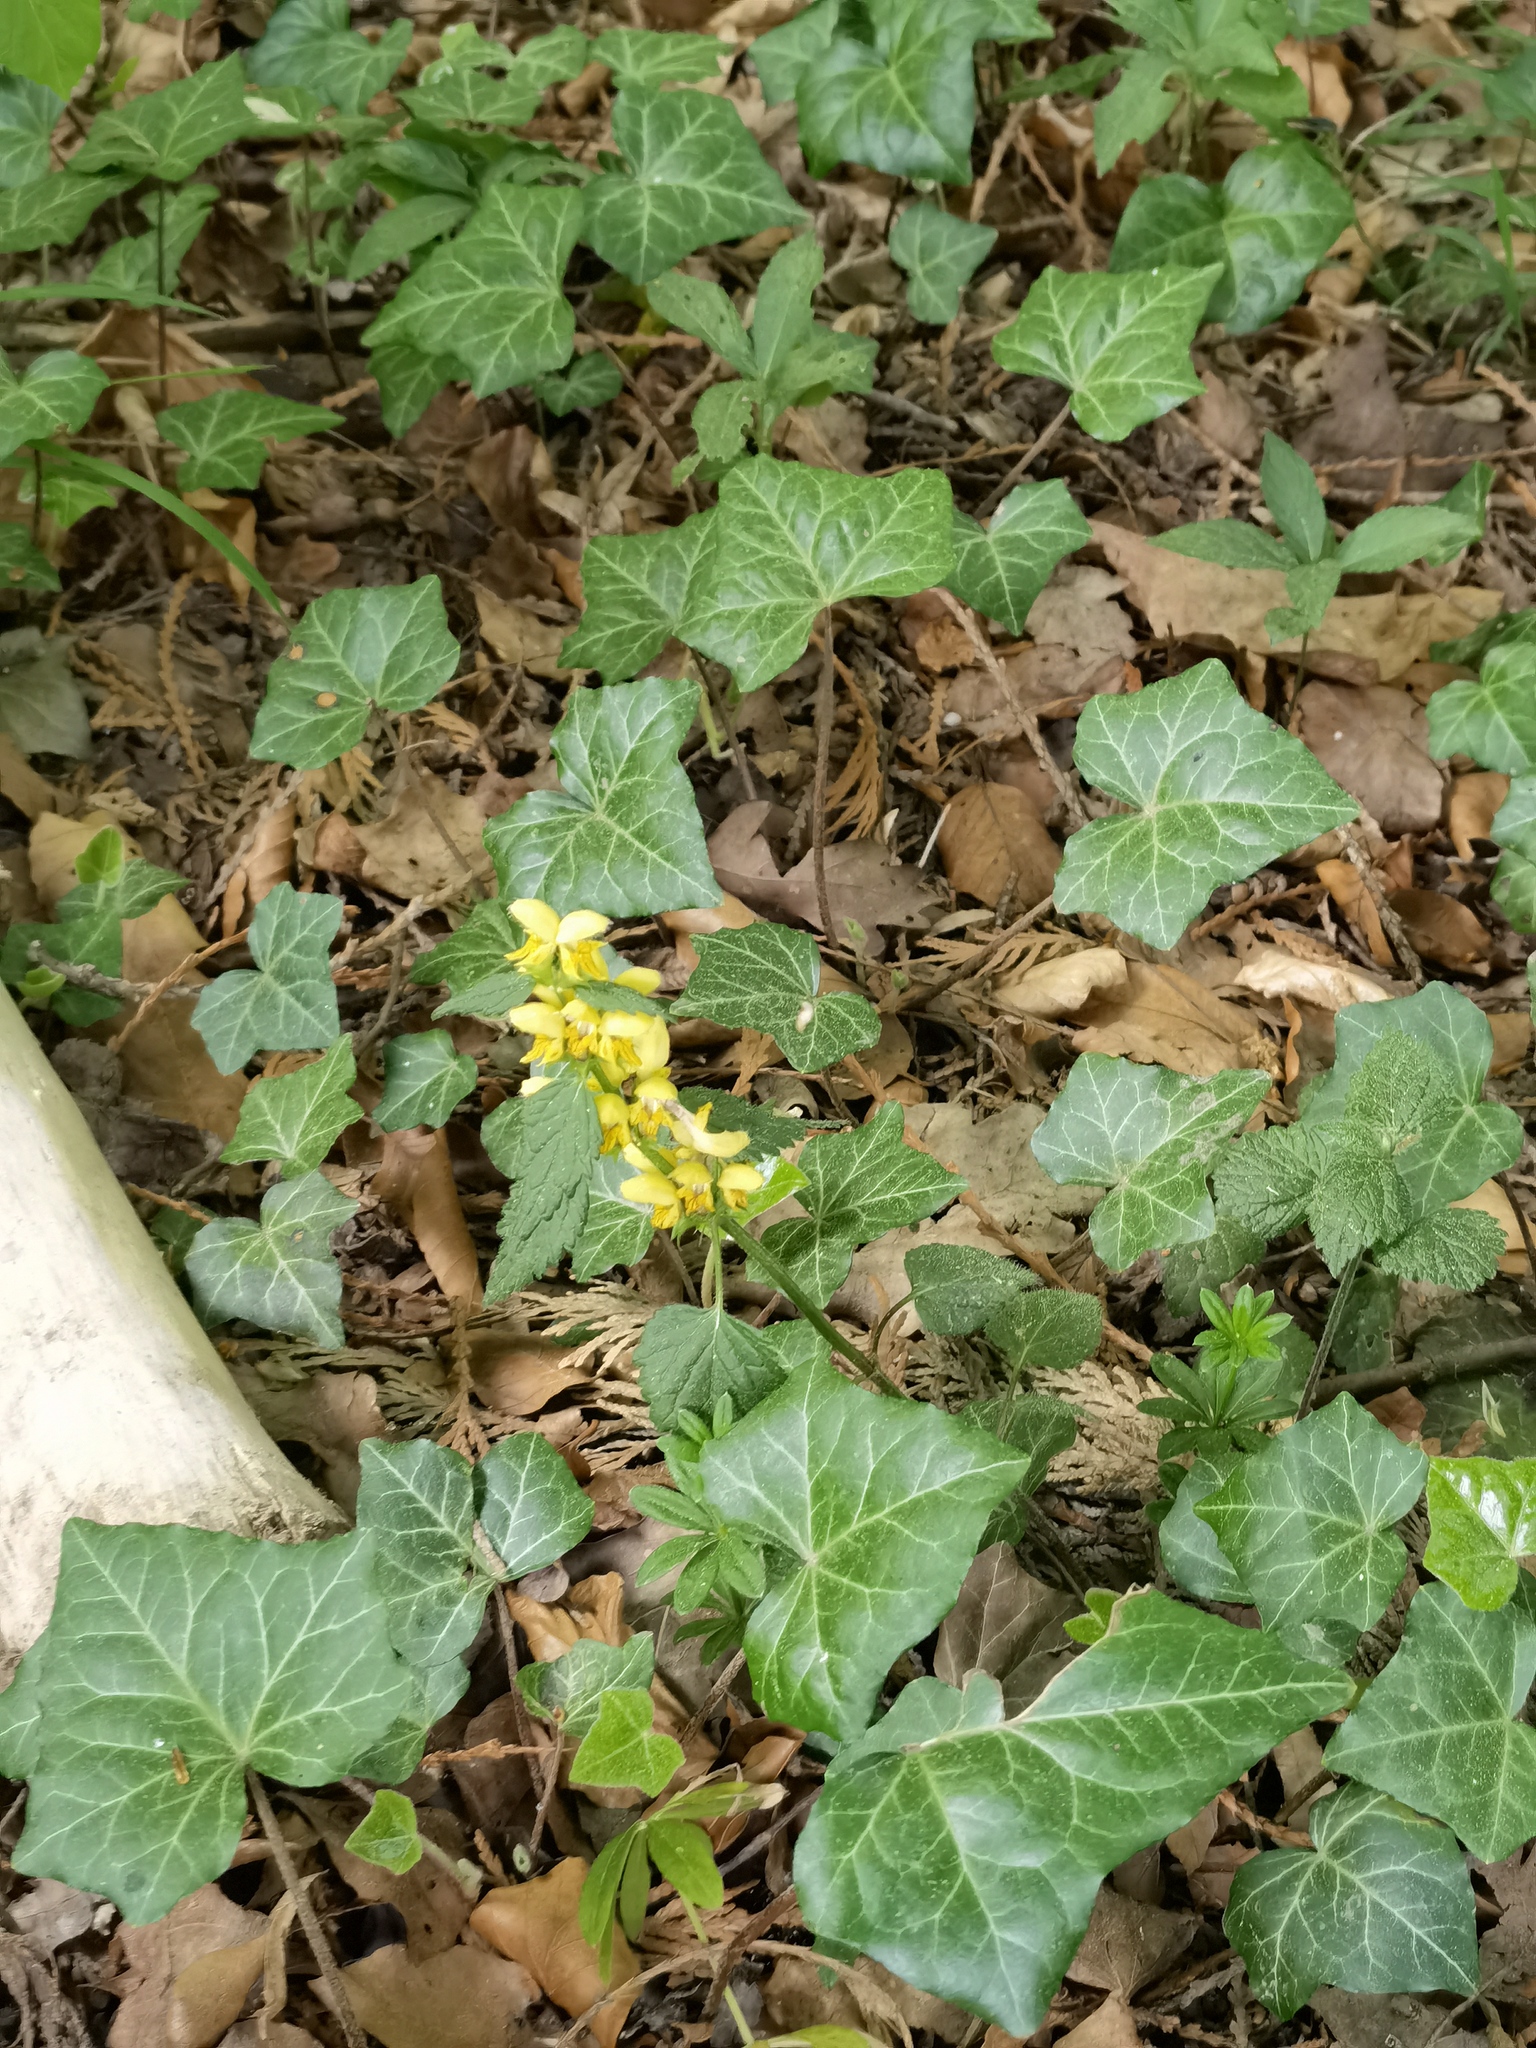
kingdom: Plantae
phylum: Tracheophyta
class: Magnoliopsida
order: Lamiales
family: Lamiaceae
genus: Lamium
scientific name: Lamium galeobdolon
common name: Yellow archangel
